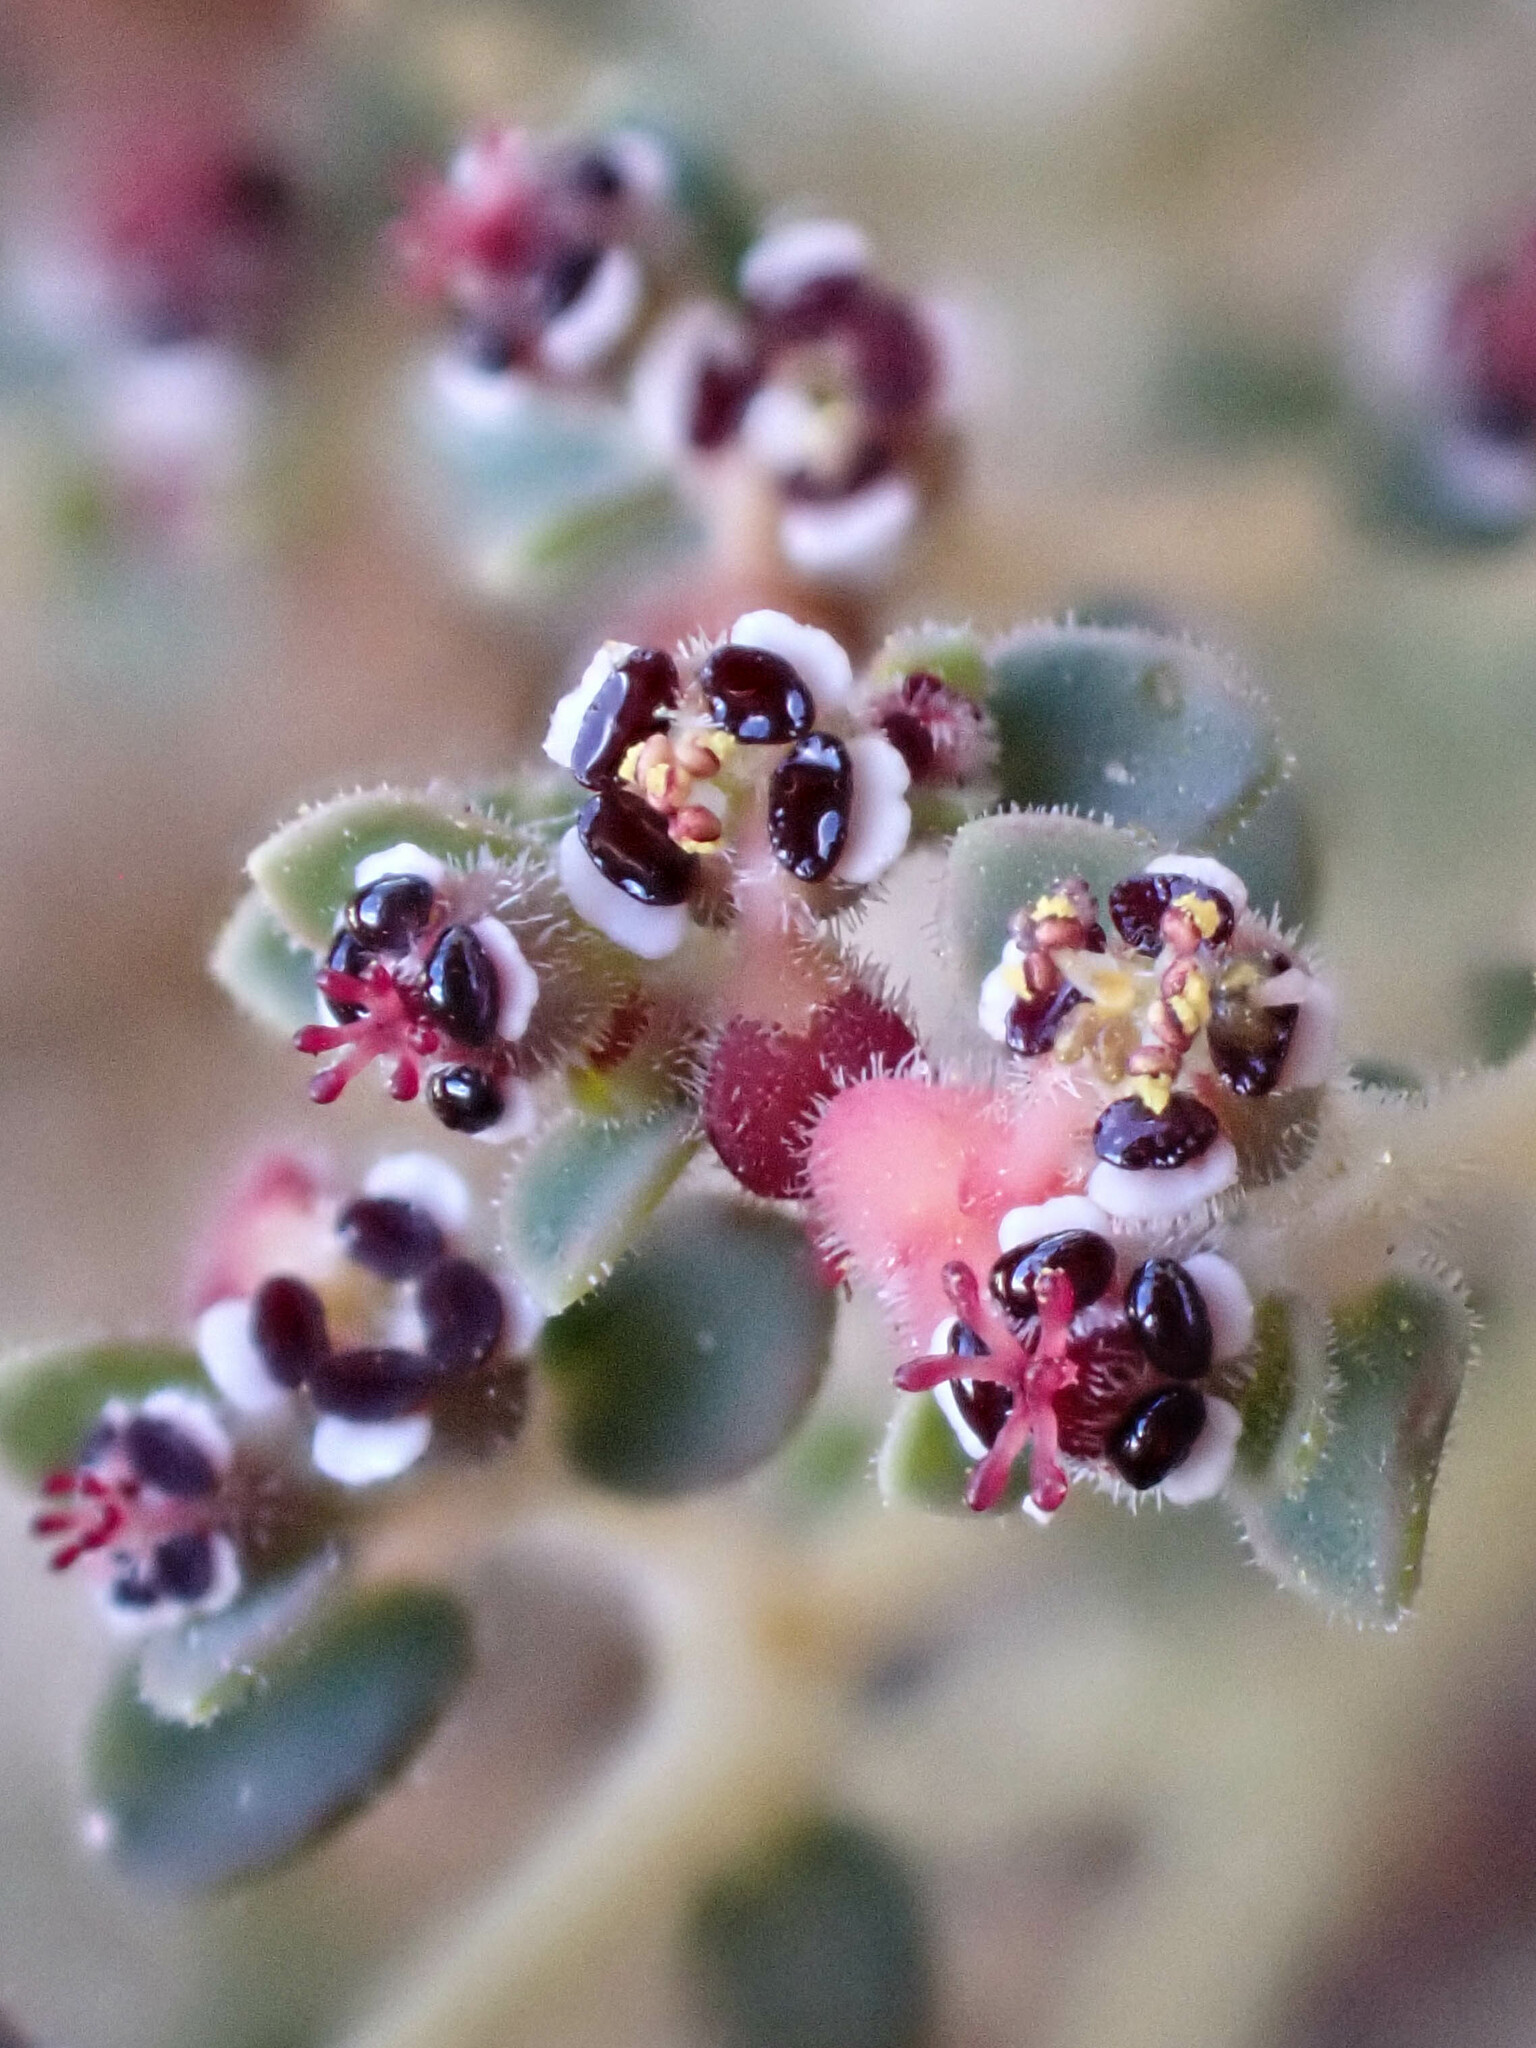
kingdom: Plantae
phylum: Tracheophyta
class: Magnoliopsida
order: Malpighiales
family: Euphorbiaceae
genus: Euphorbia
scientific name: Euphorbia polycarpa
